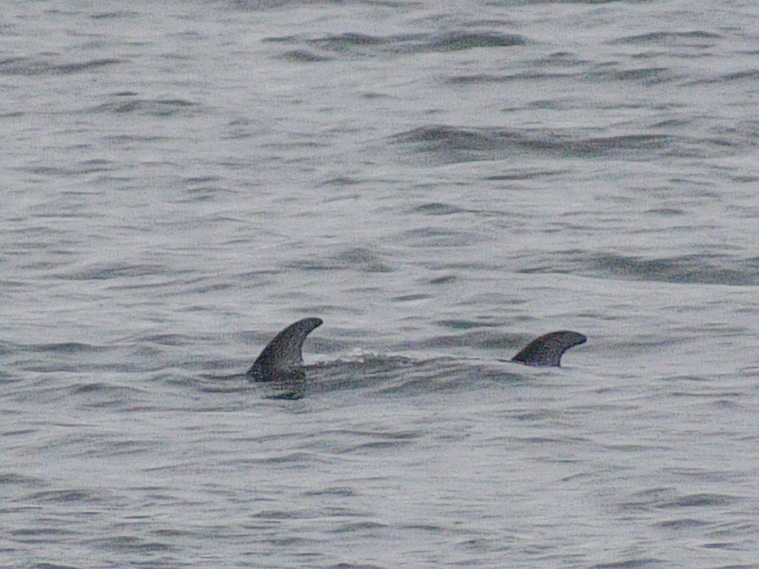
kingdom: Animalia
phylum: Chordata
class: Mammalia
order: Cetacea
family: Delphinidae
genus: Lagenorhynchus
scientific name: Lagenorhynchus obliquidens
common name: Pacific white-sided dolphin
